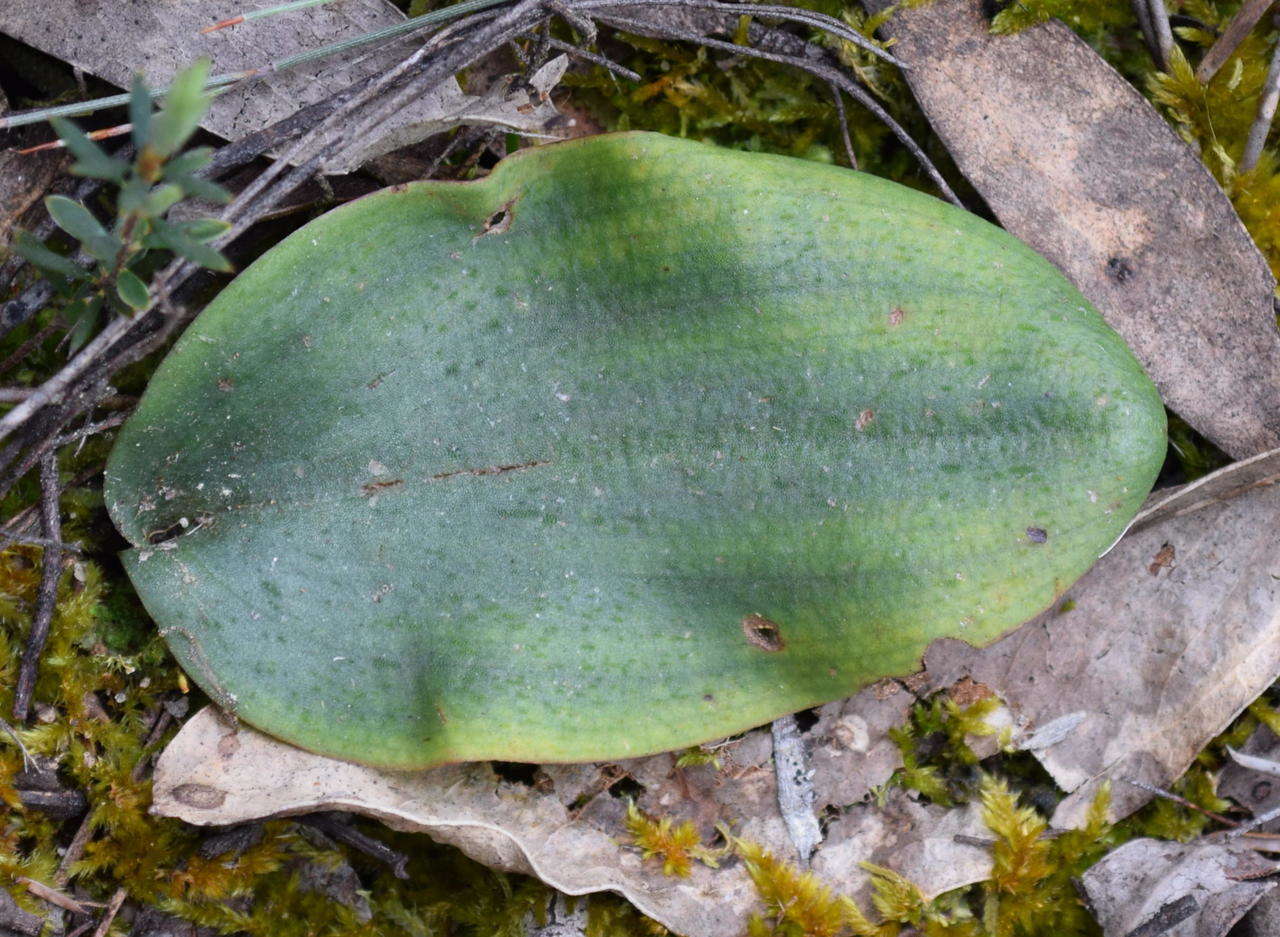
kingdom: Plantae
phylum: Tracheophyta
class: Liliopsida
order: Asparagales
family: Orchidaceae
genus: Pyrorchis
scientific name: Pyrorchis nigricans
